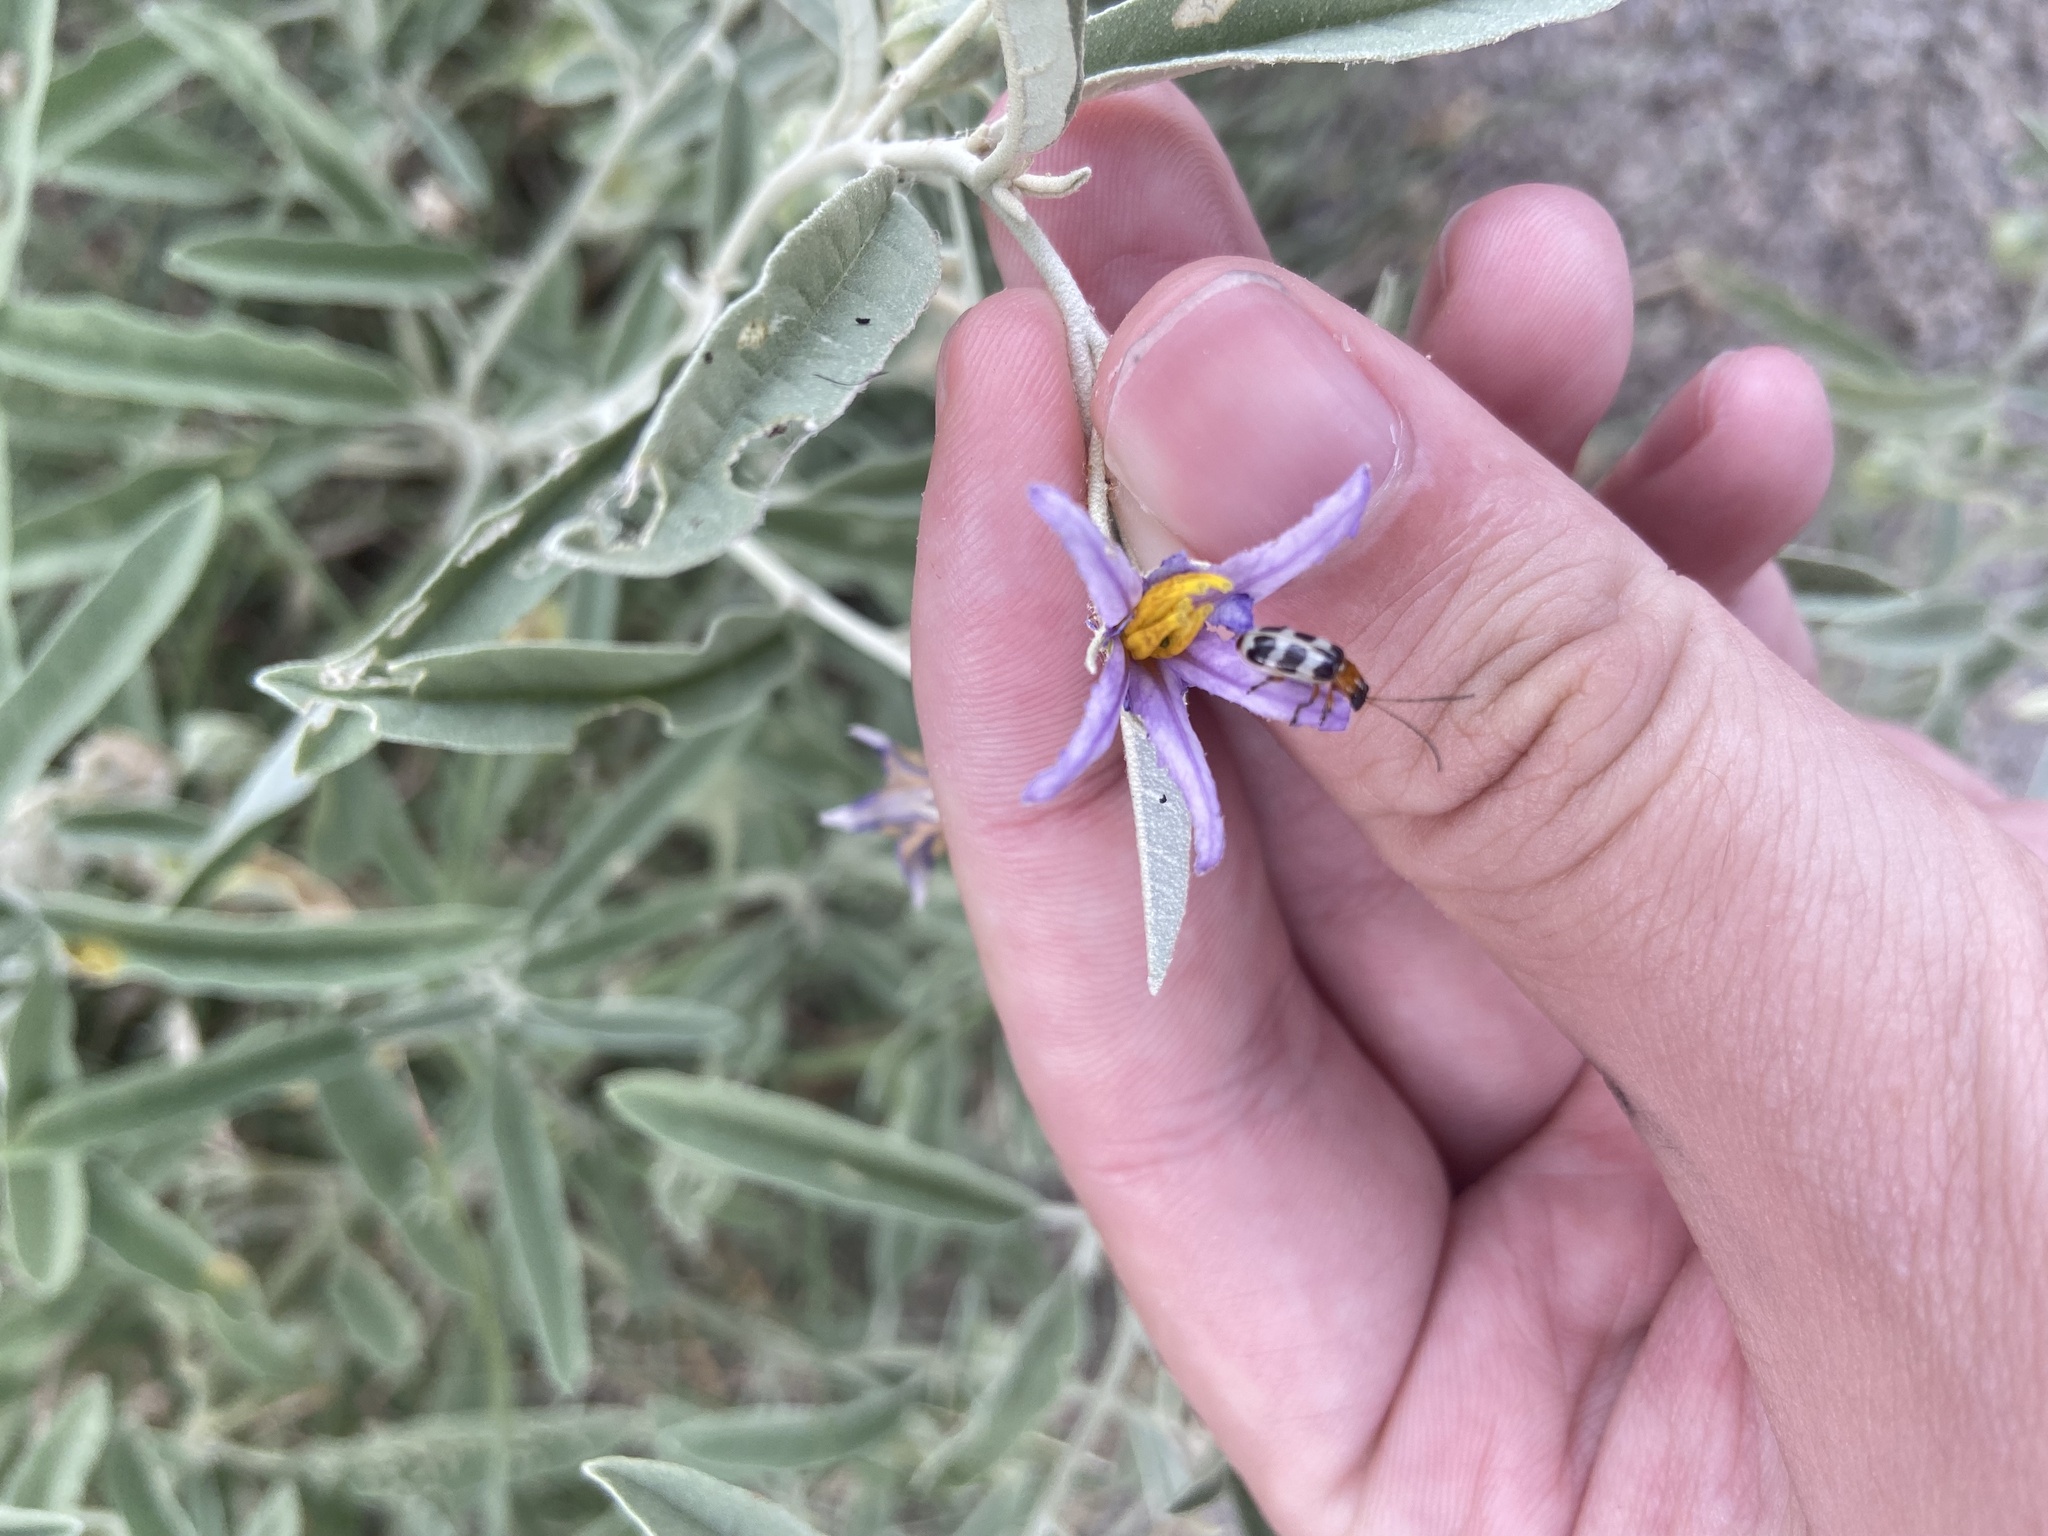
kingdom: Animalia
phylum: Arthropoda
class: Insecta
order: Coleoptera
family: Chrysomelidae
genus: Paranapiacaba
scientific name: Paranapiacaba tricincta
